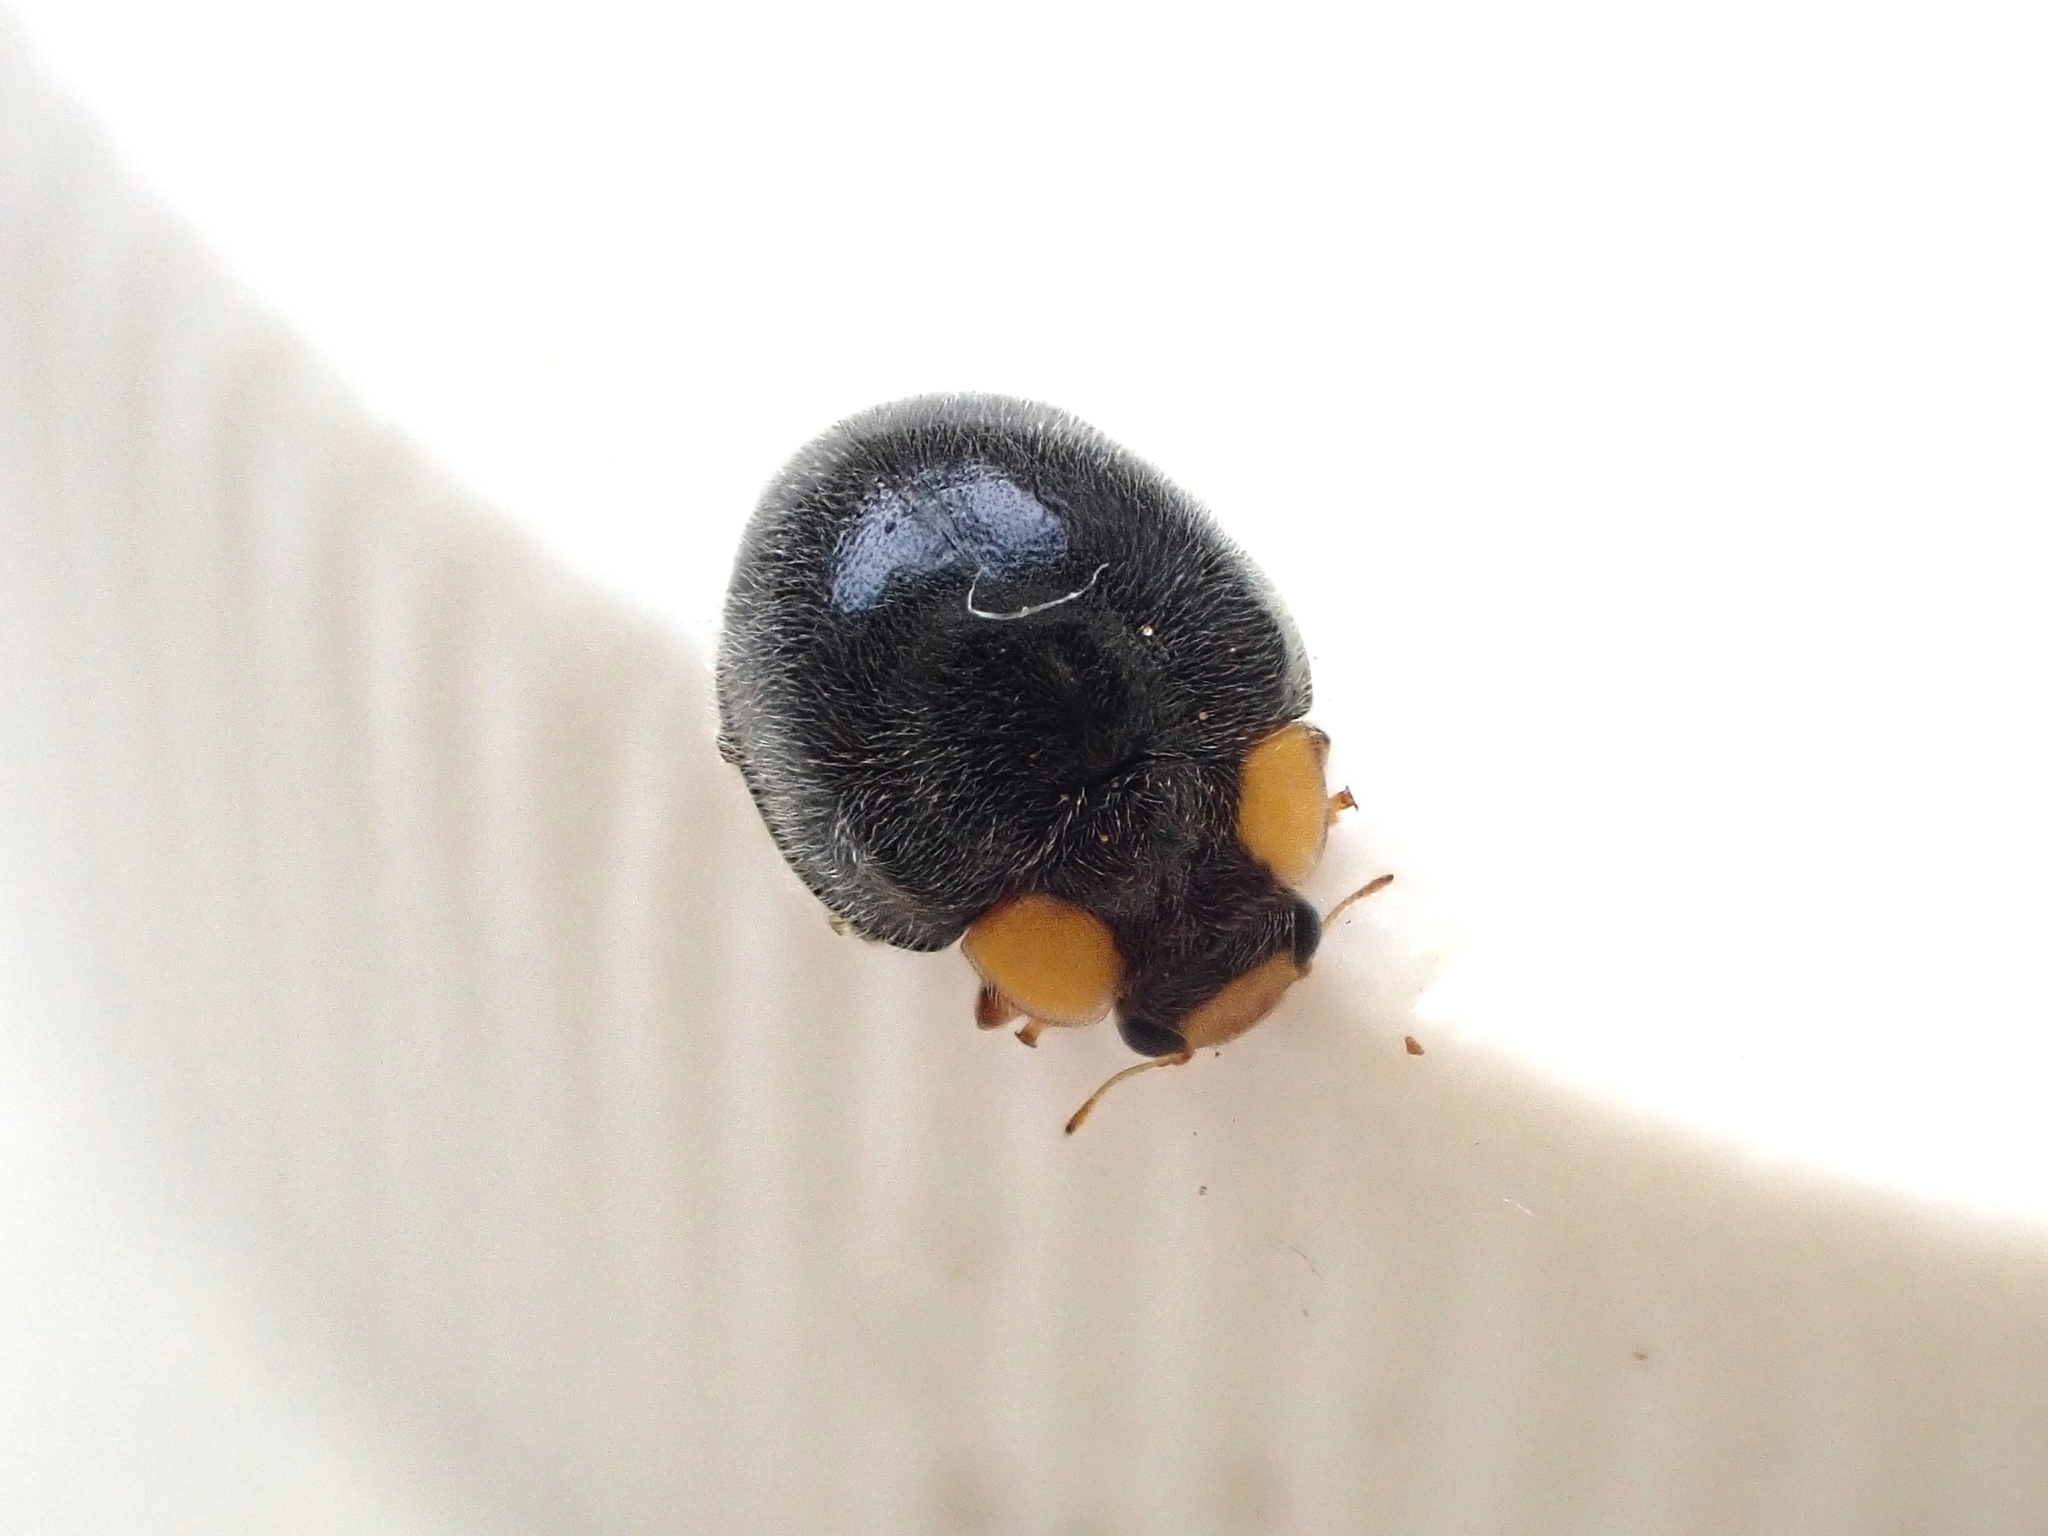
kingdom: Animalia
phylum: Arthropoda
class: Insecta
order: Coleoptera
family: Coccinellidae
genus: Scymnodes
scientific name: Scymnodes lividigaster
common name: Yellowshouldered lady beetle
